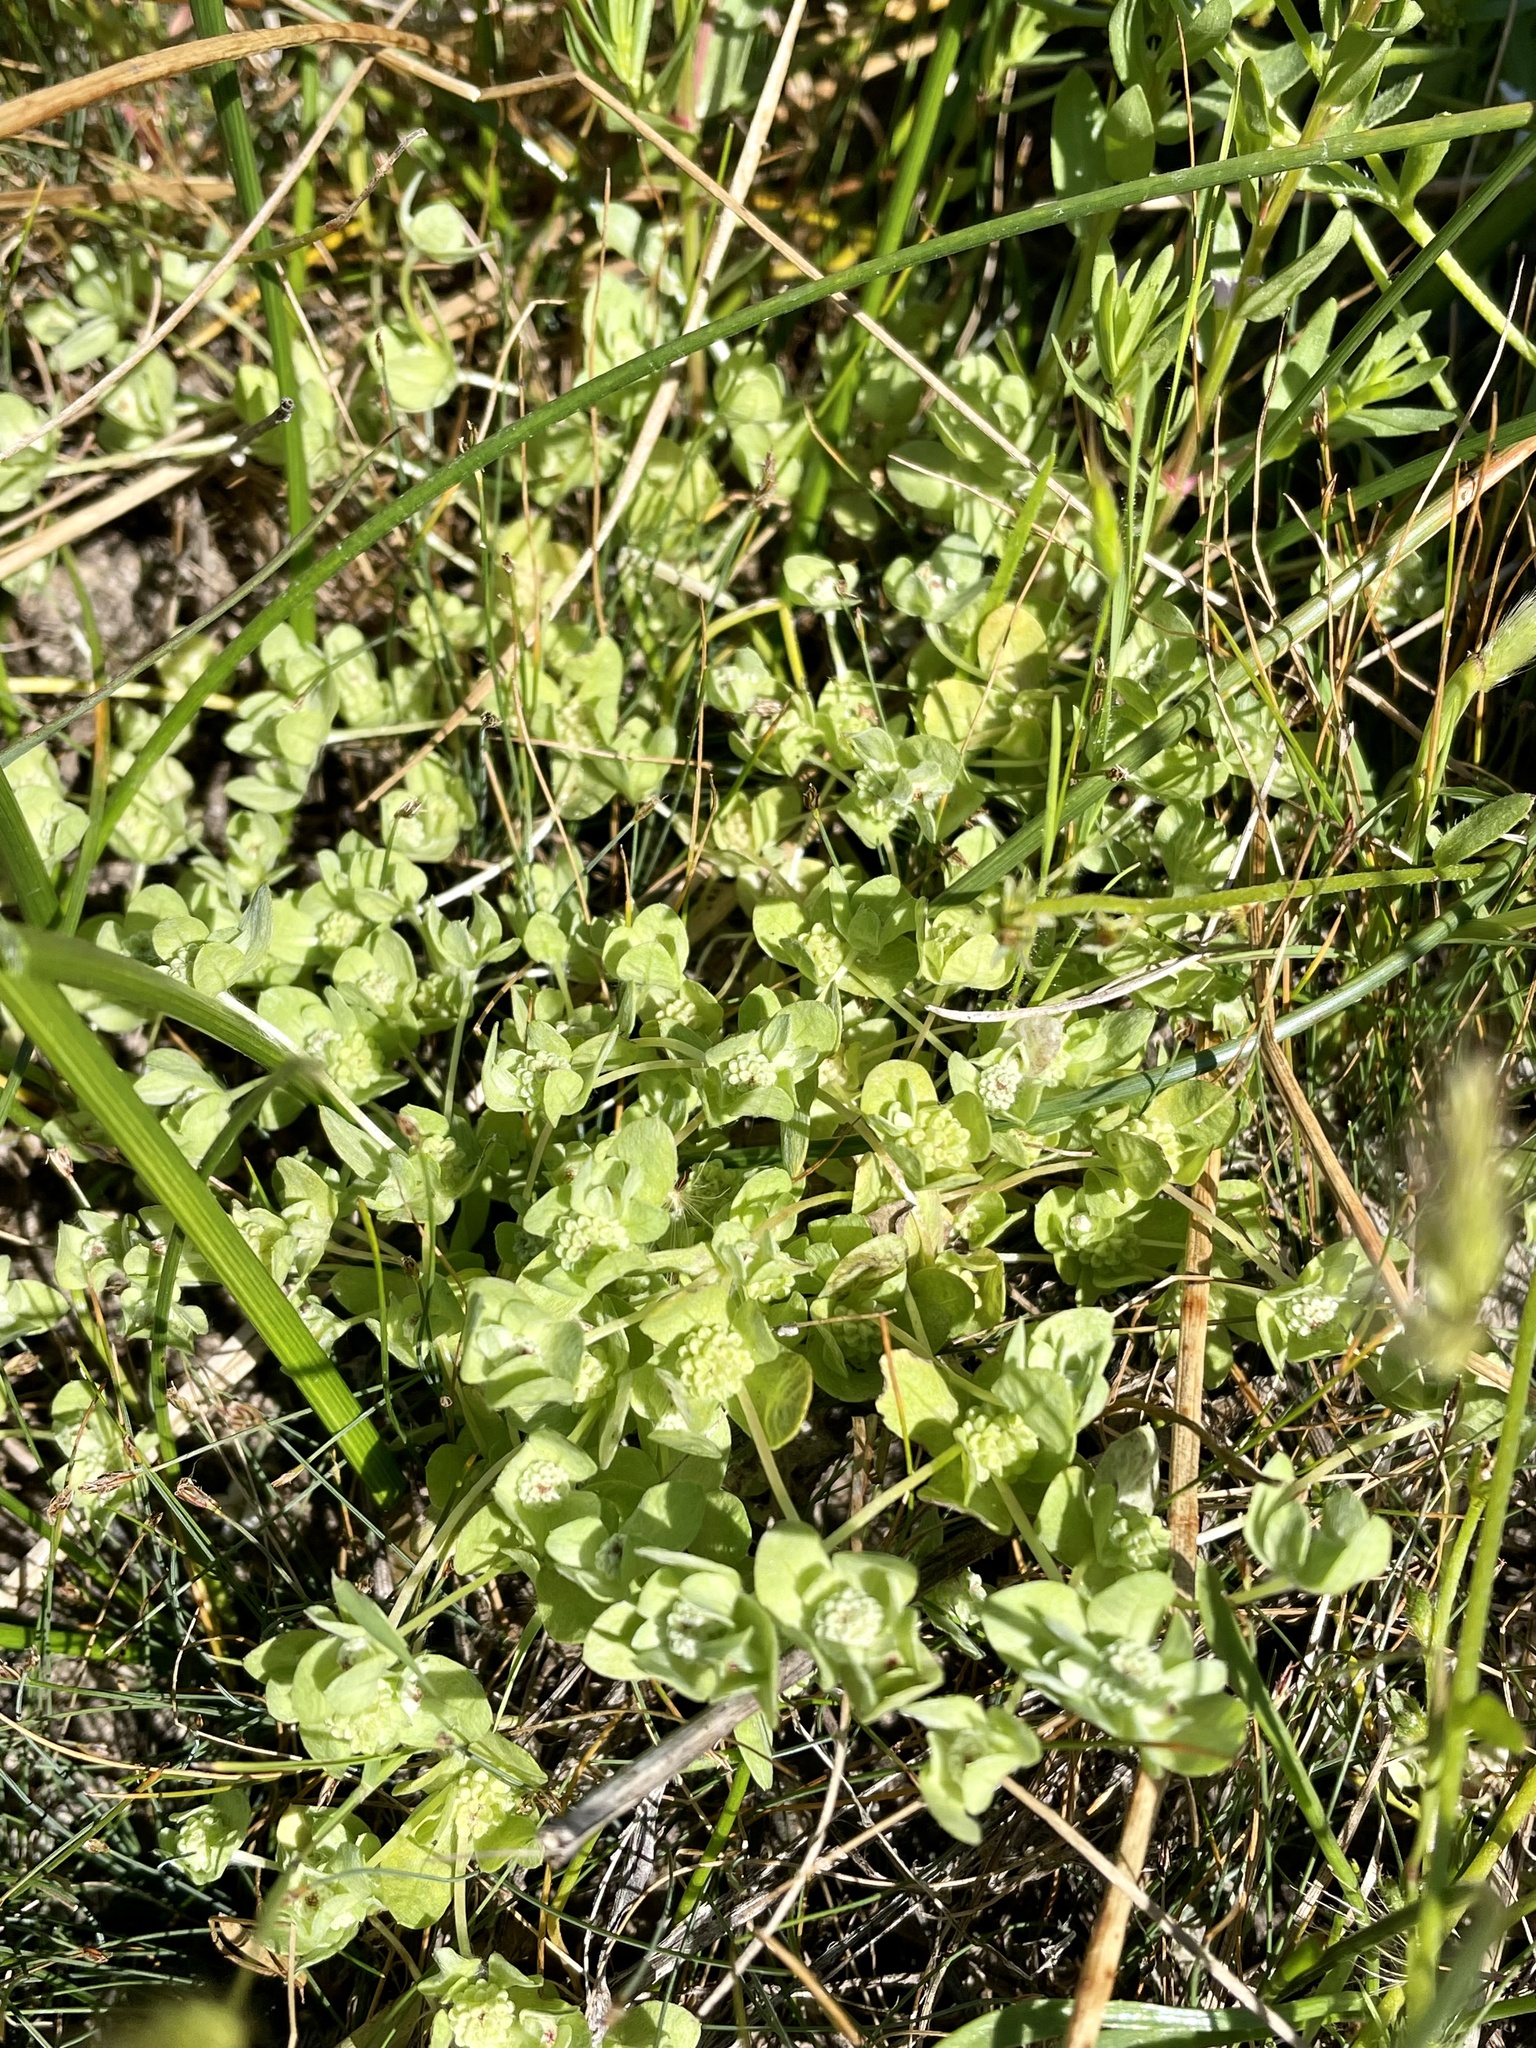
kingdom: Plantae
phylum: Tracheophyta
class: Magnoliopsida
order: Asterales
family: Asteraceae
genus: Psilocarphus
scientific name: Psilocarphus chilensis
